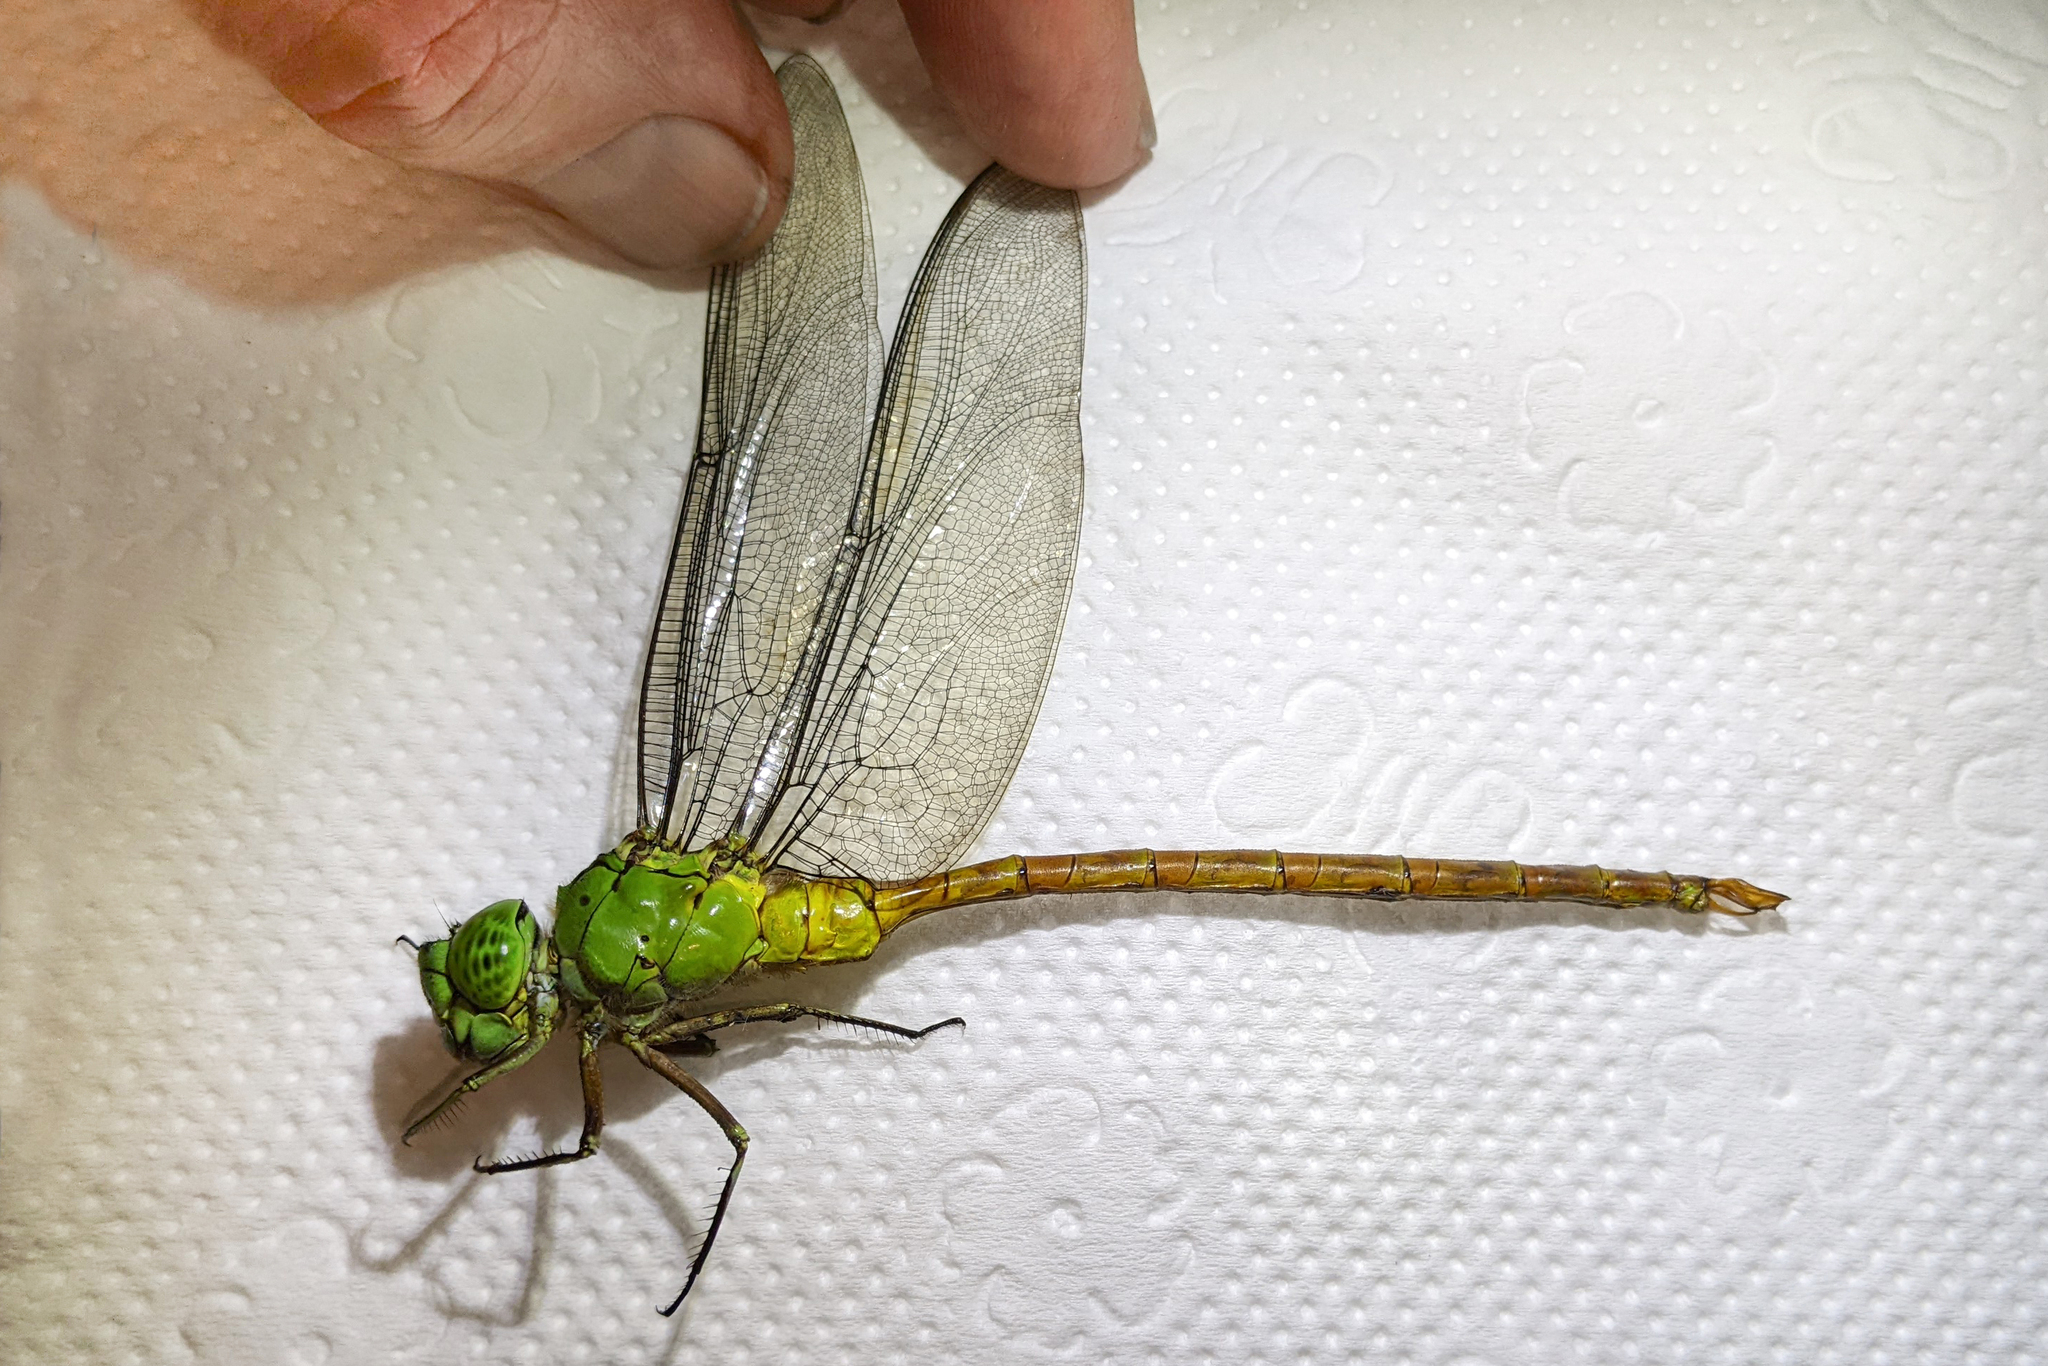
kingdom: Animalia
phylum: Arthropoda
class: Insecta
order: Odonata
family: Aeshnidae
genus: Staurophlebia
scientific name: Staurophlebia reticulata
